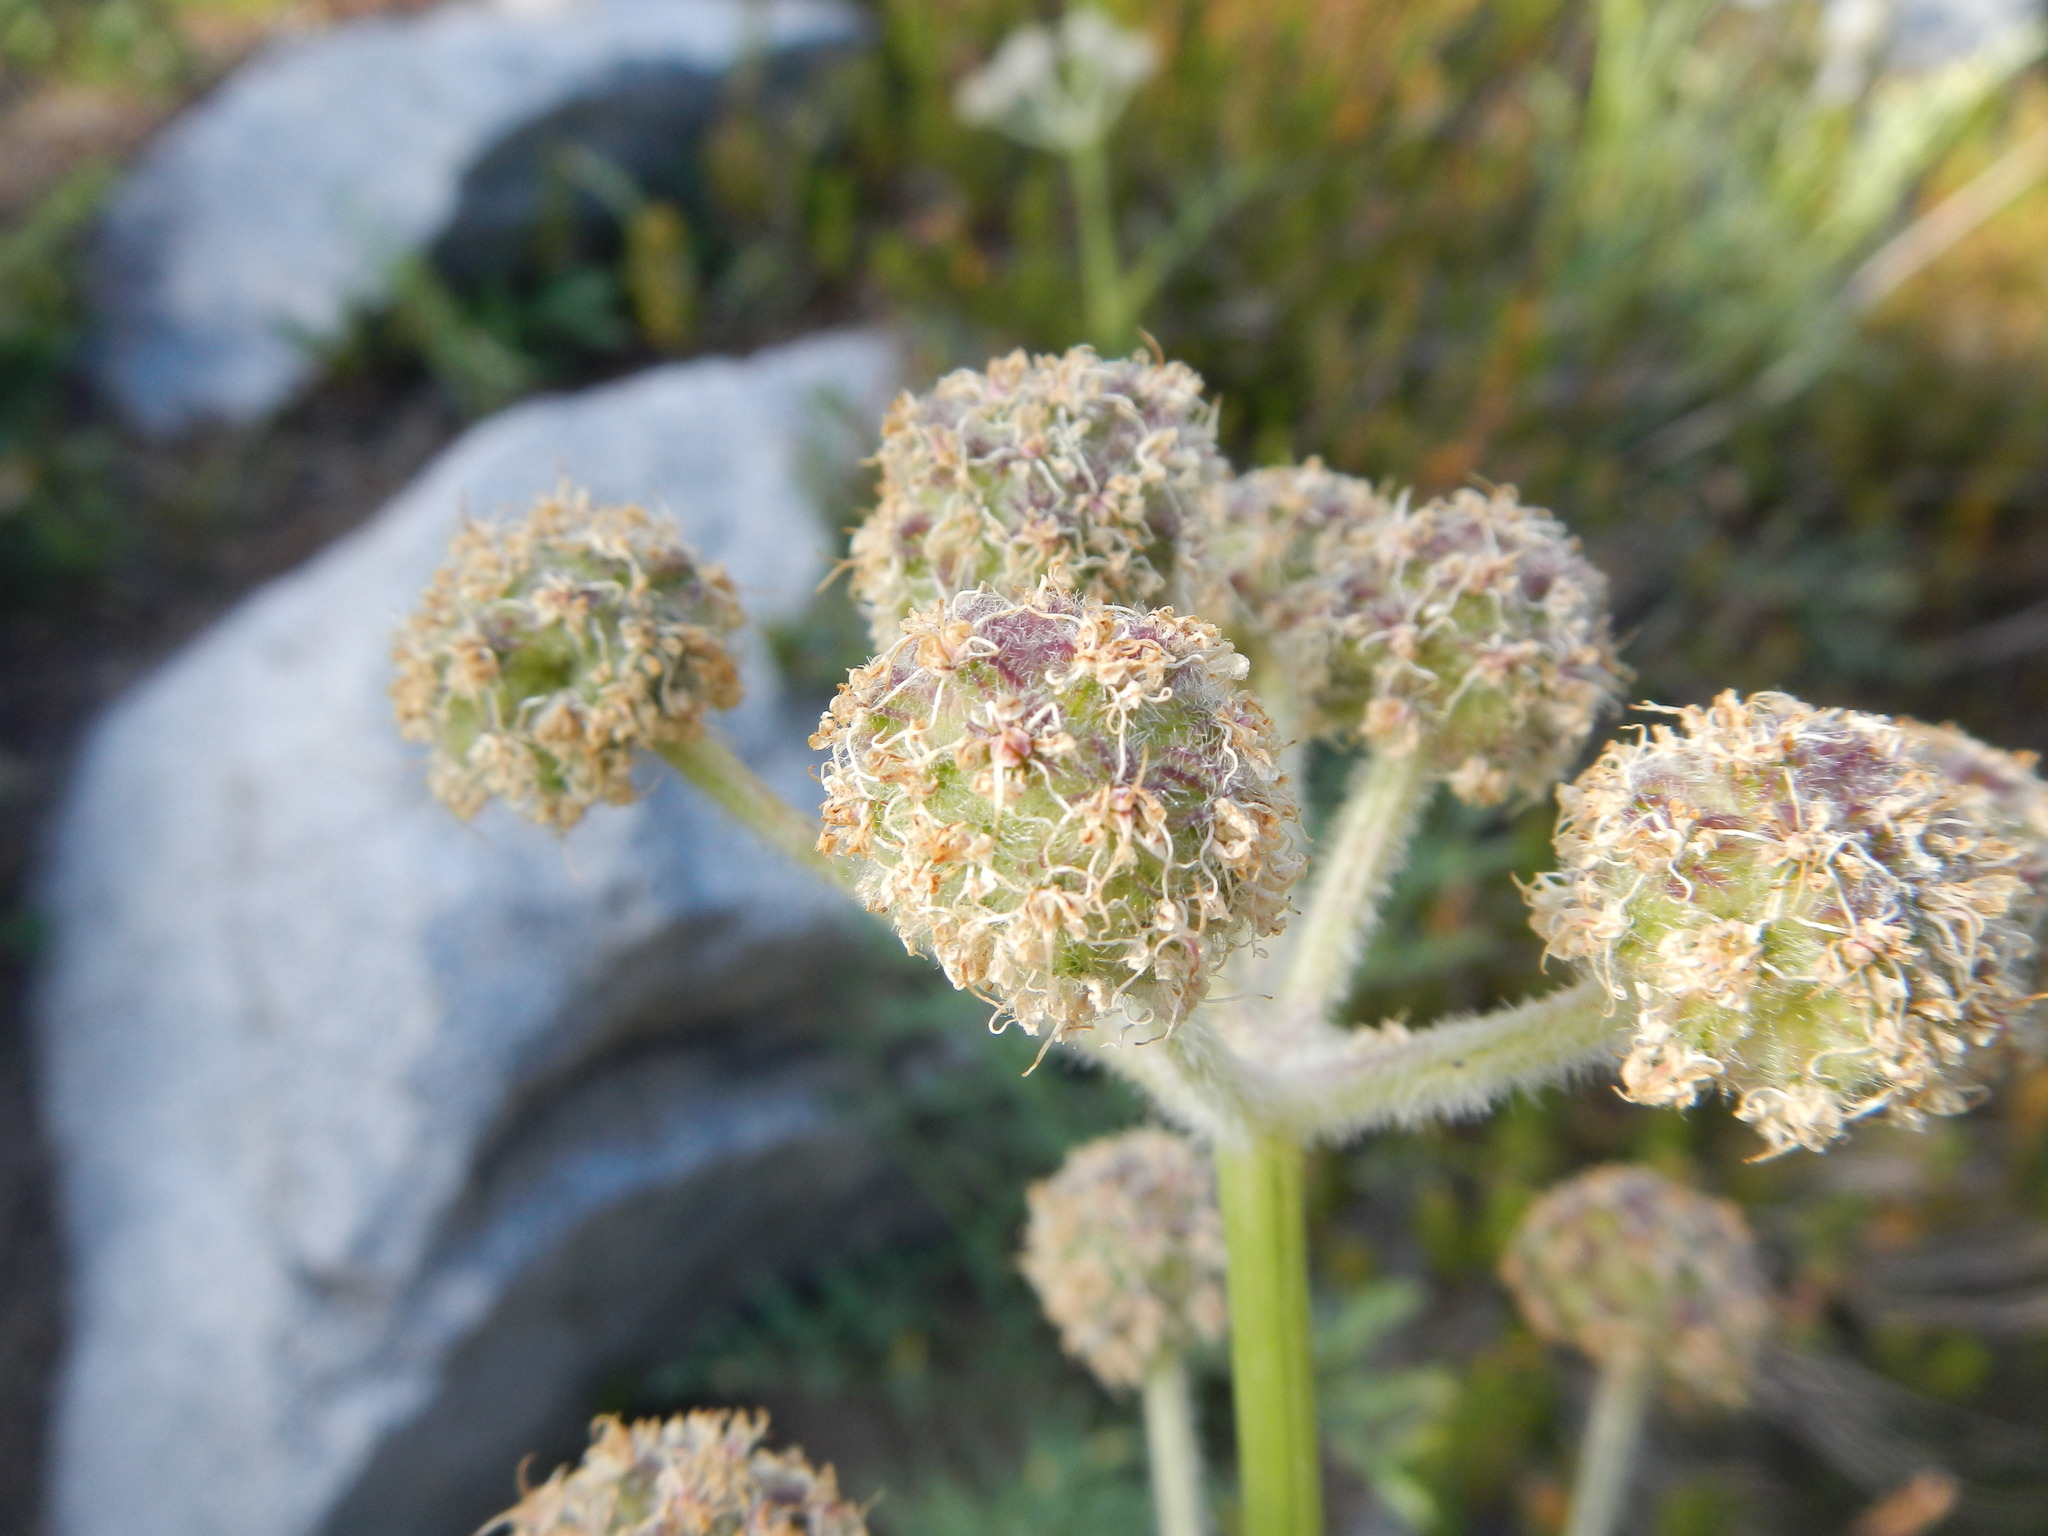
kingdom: Plantae
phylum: Tracheophyta
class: Magnoliopsida
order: Apiales
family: Apiaceae
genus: Angelica
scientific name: Angelica capitellata
